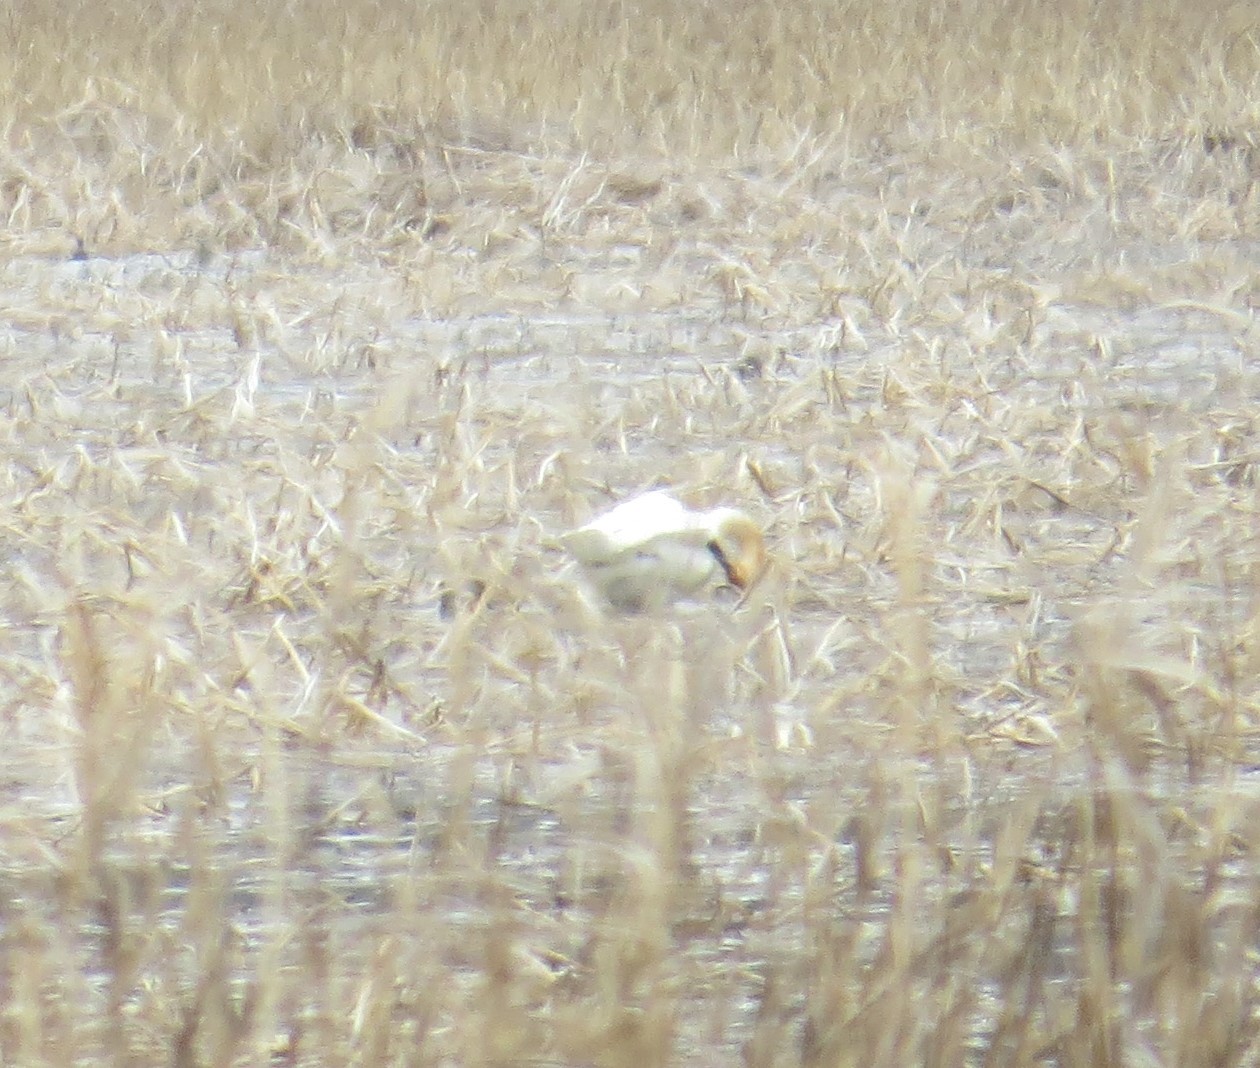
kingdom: Animalia
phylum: Chordata
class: Aves
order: Anseriformes
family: Anatidae
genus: Cygnus
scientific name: Cygnus buccinator
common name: Trumpeter swan
